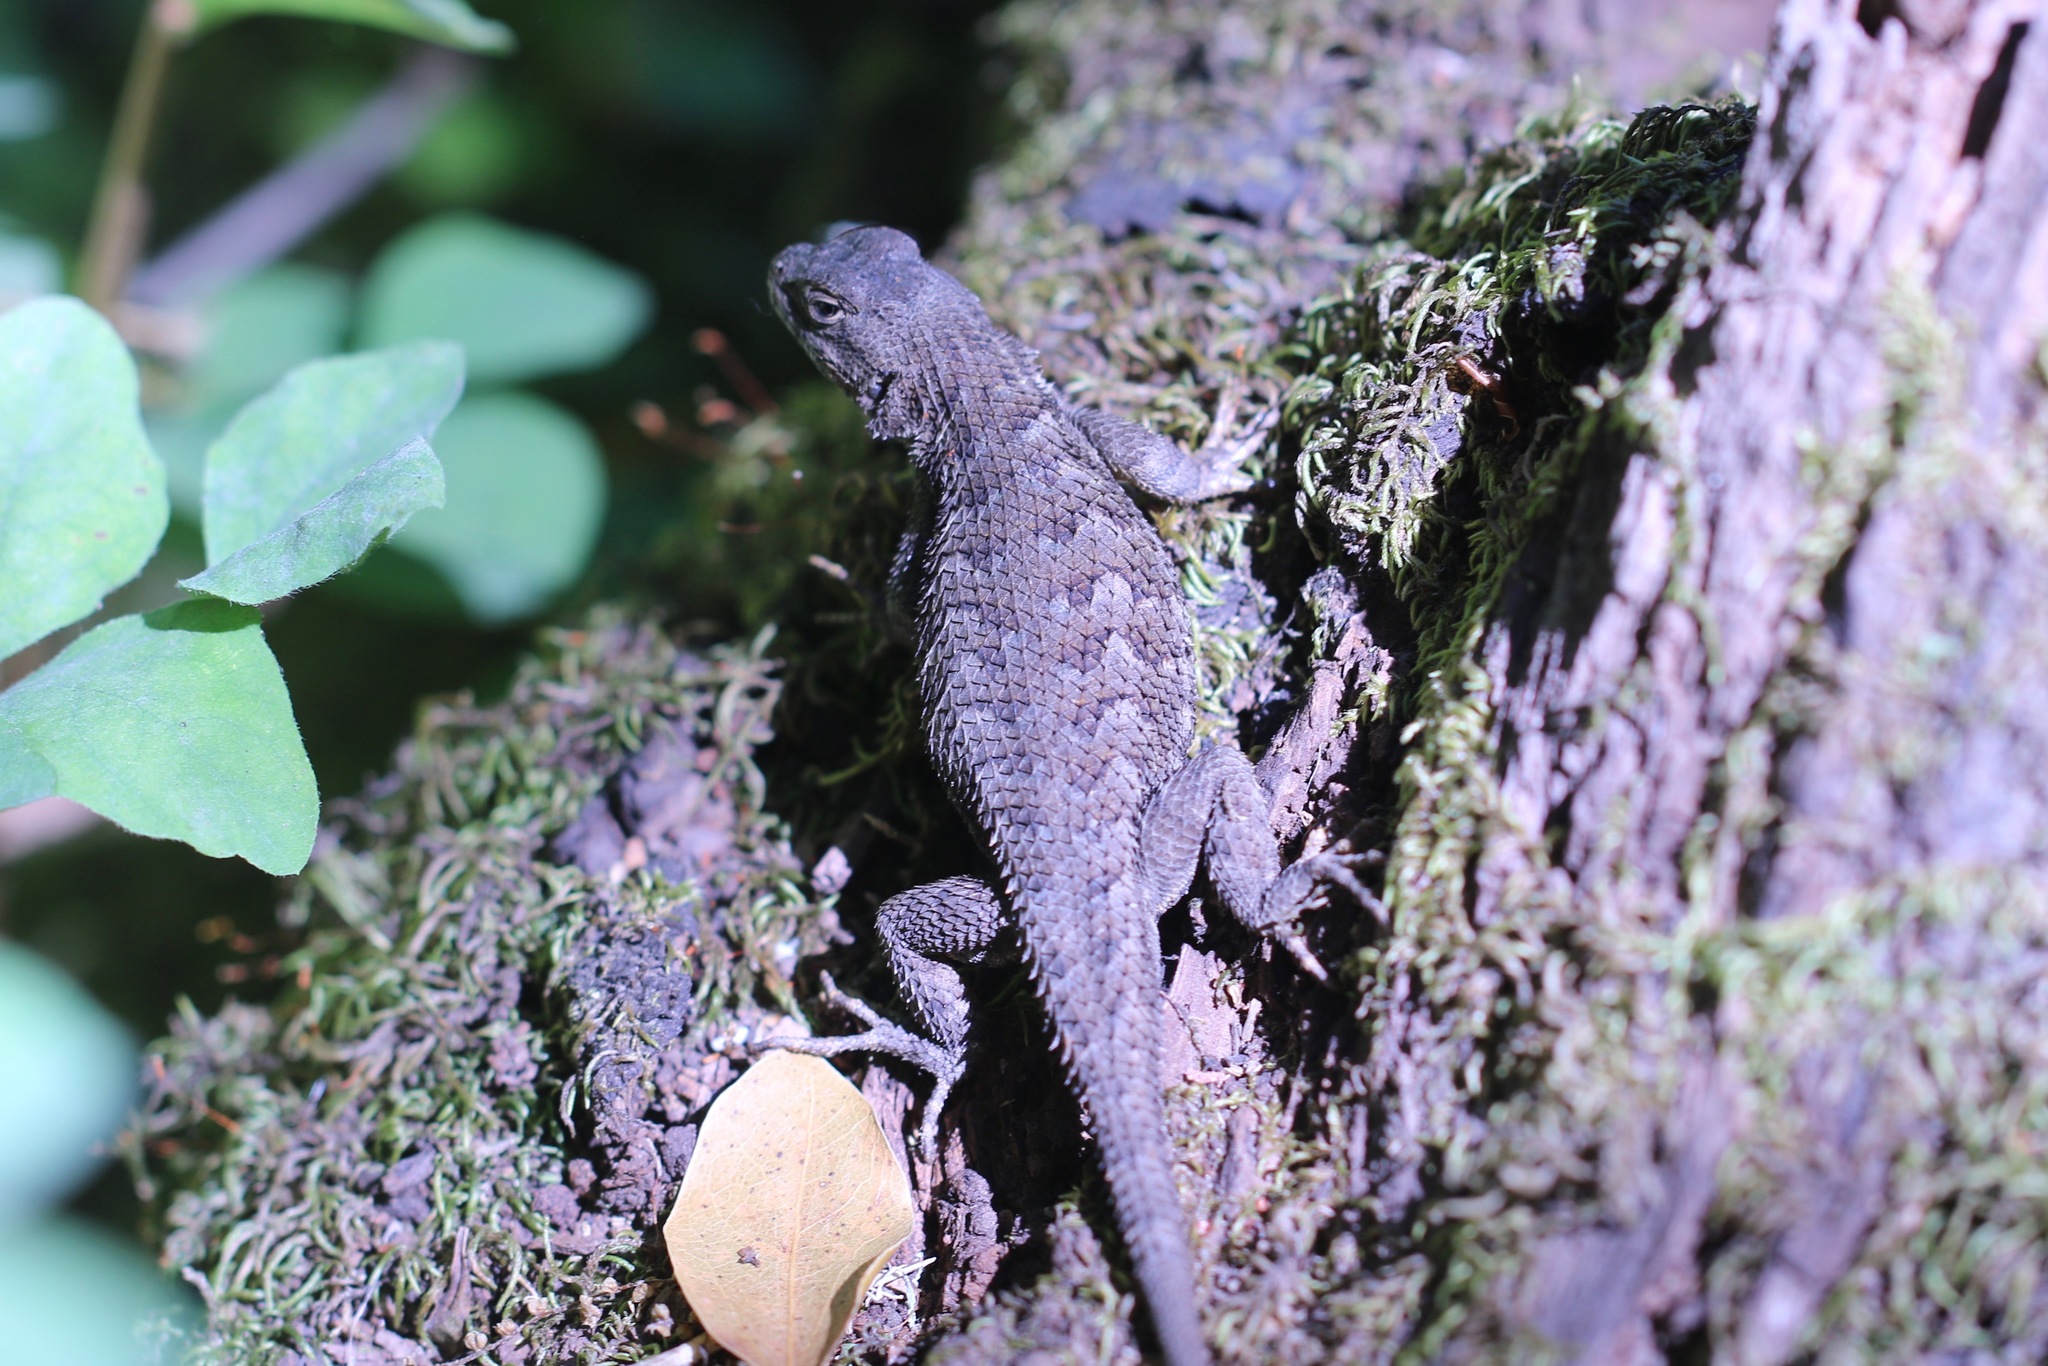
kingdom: Animalia
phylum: Chordata
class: Squamata
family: Phrynosomatidae
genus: Sceloporus
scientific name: Sceloporus occidentalis
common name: Western fence lizard
